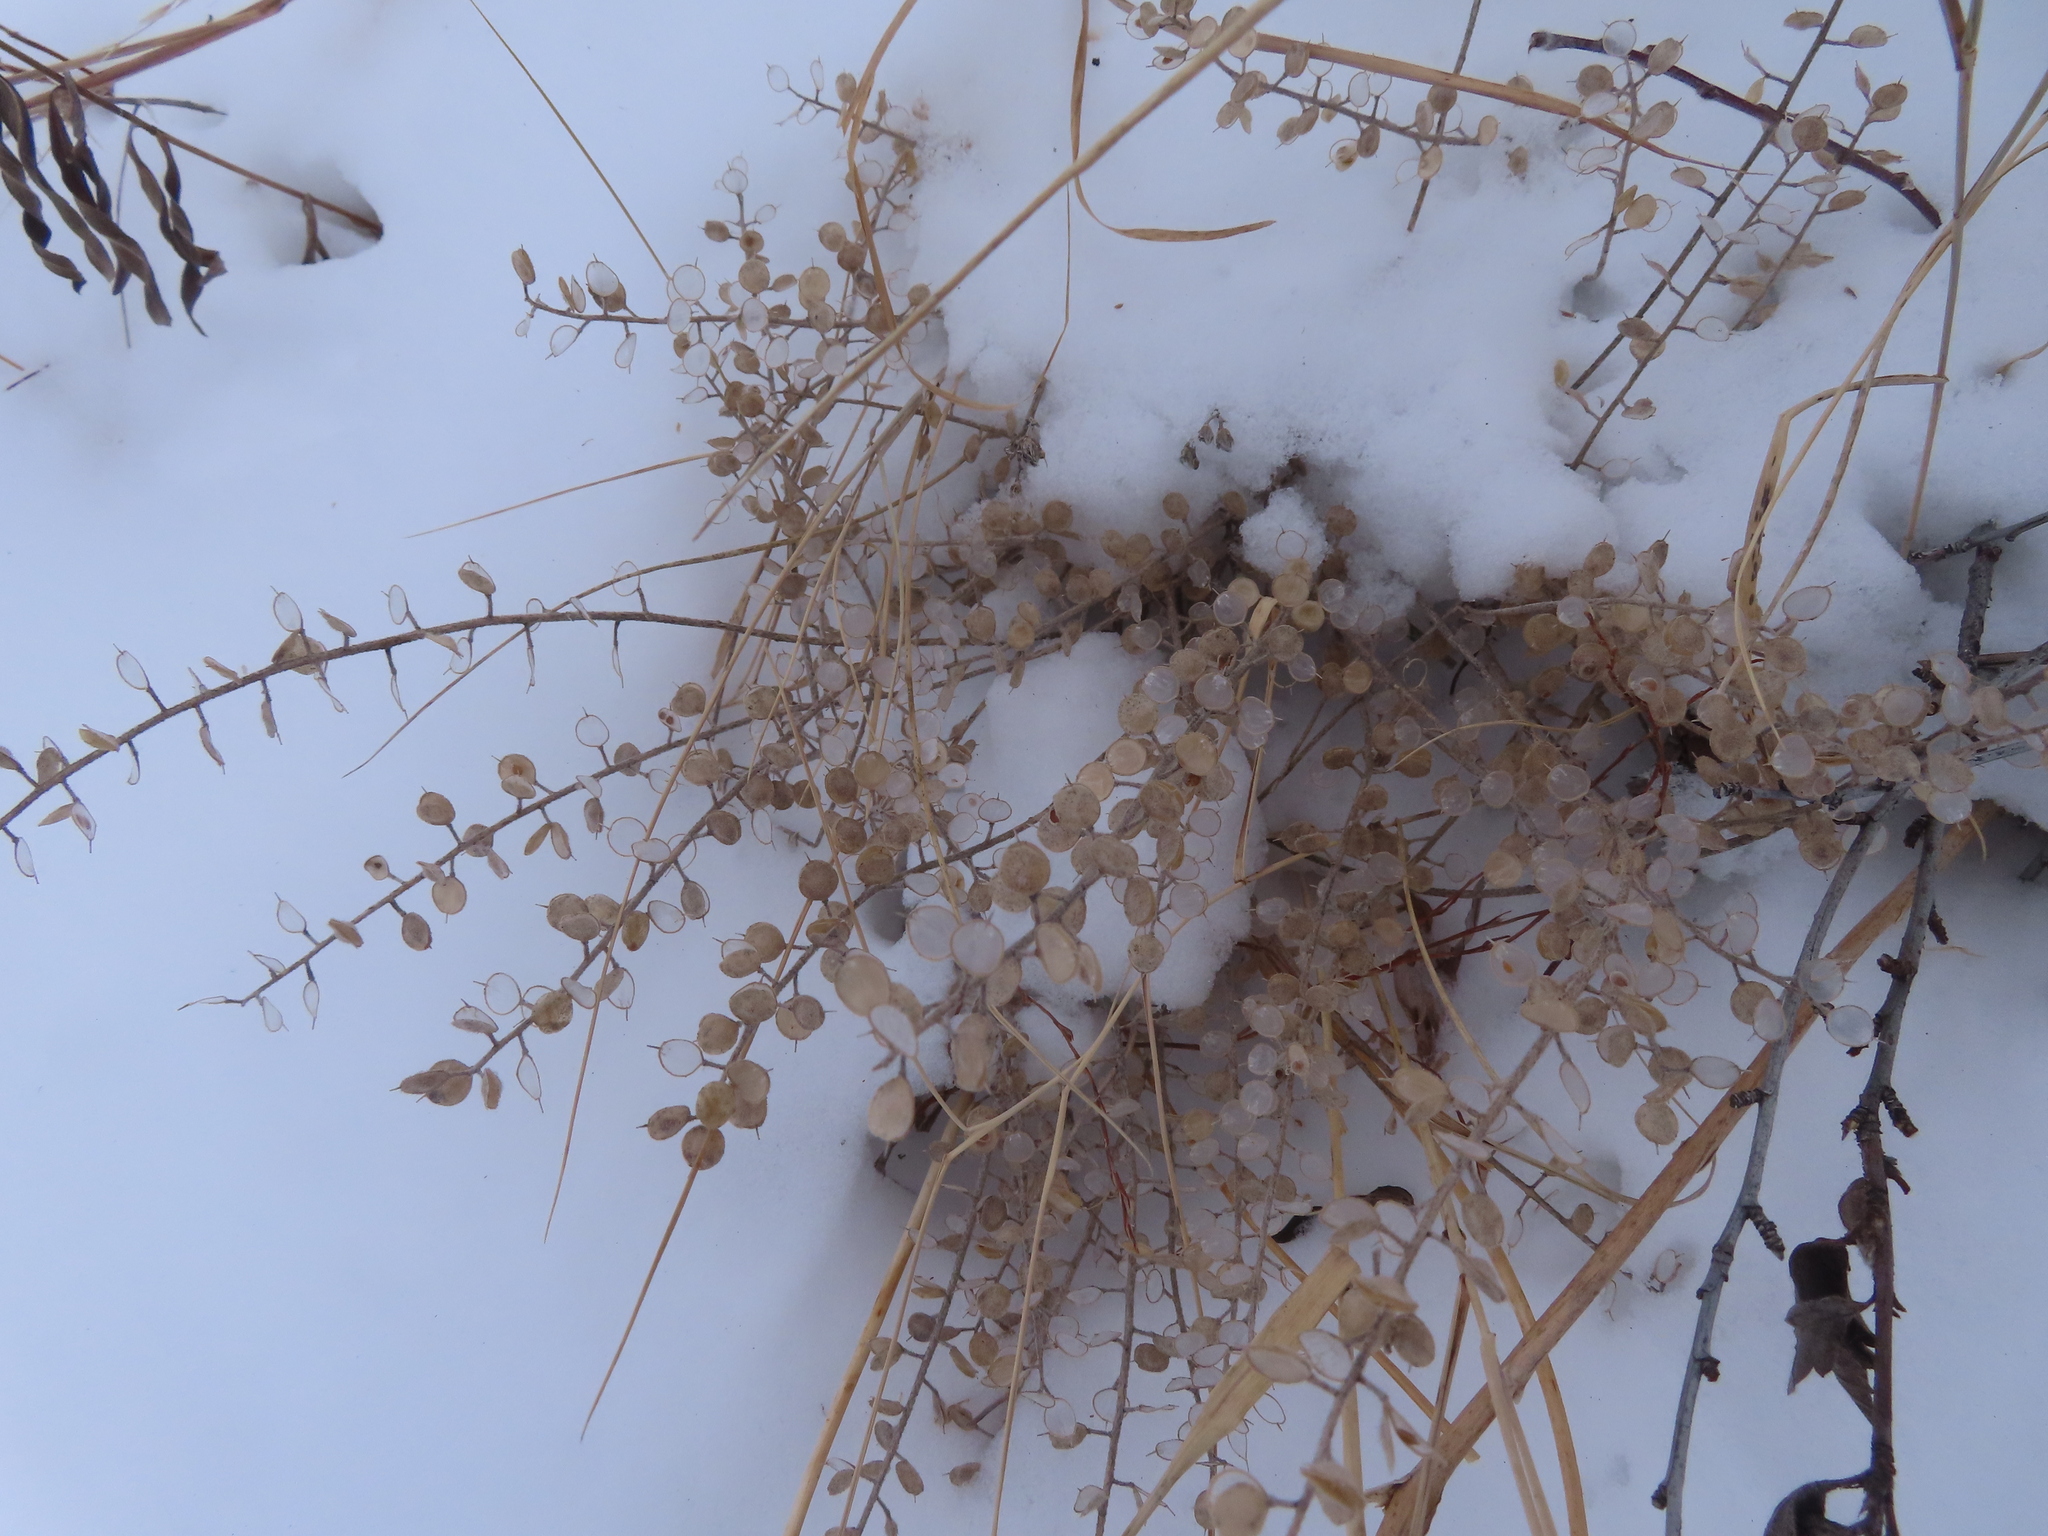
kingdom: Plantae
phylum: Tracheophyta
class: Magnoliopsida
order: Brassicales
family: Brassicaceae
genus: Alyssum
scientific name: Alyssum simplex
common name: Alyssum
